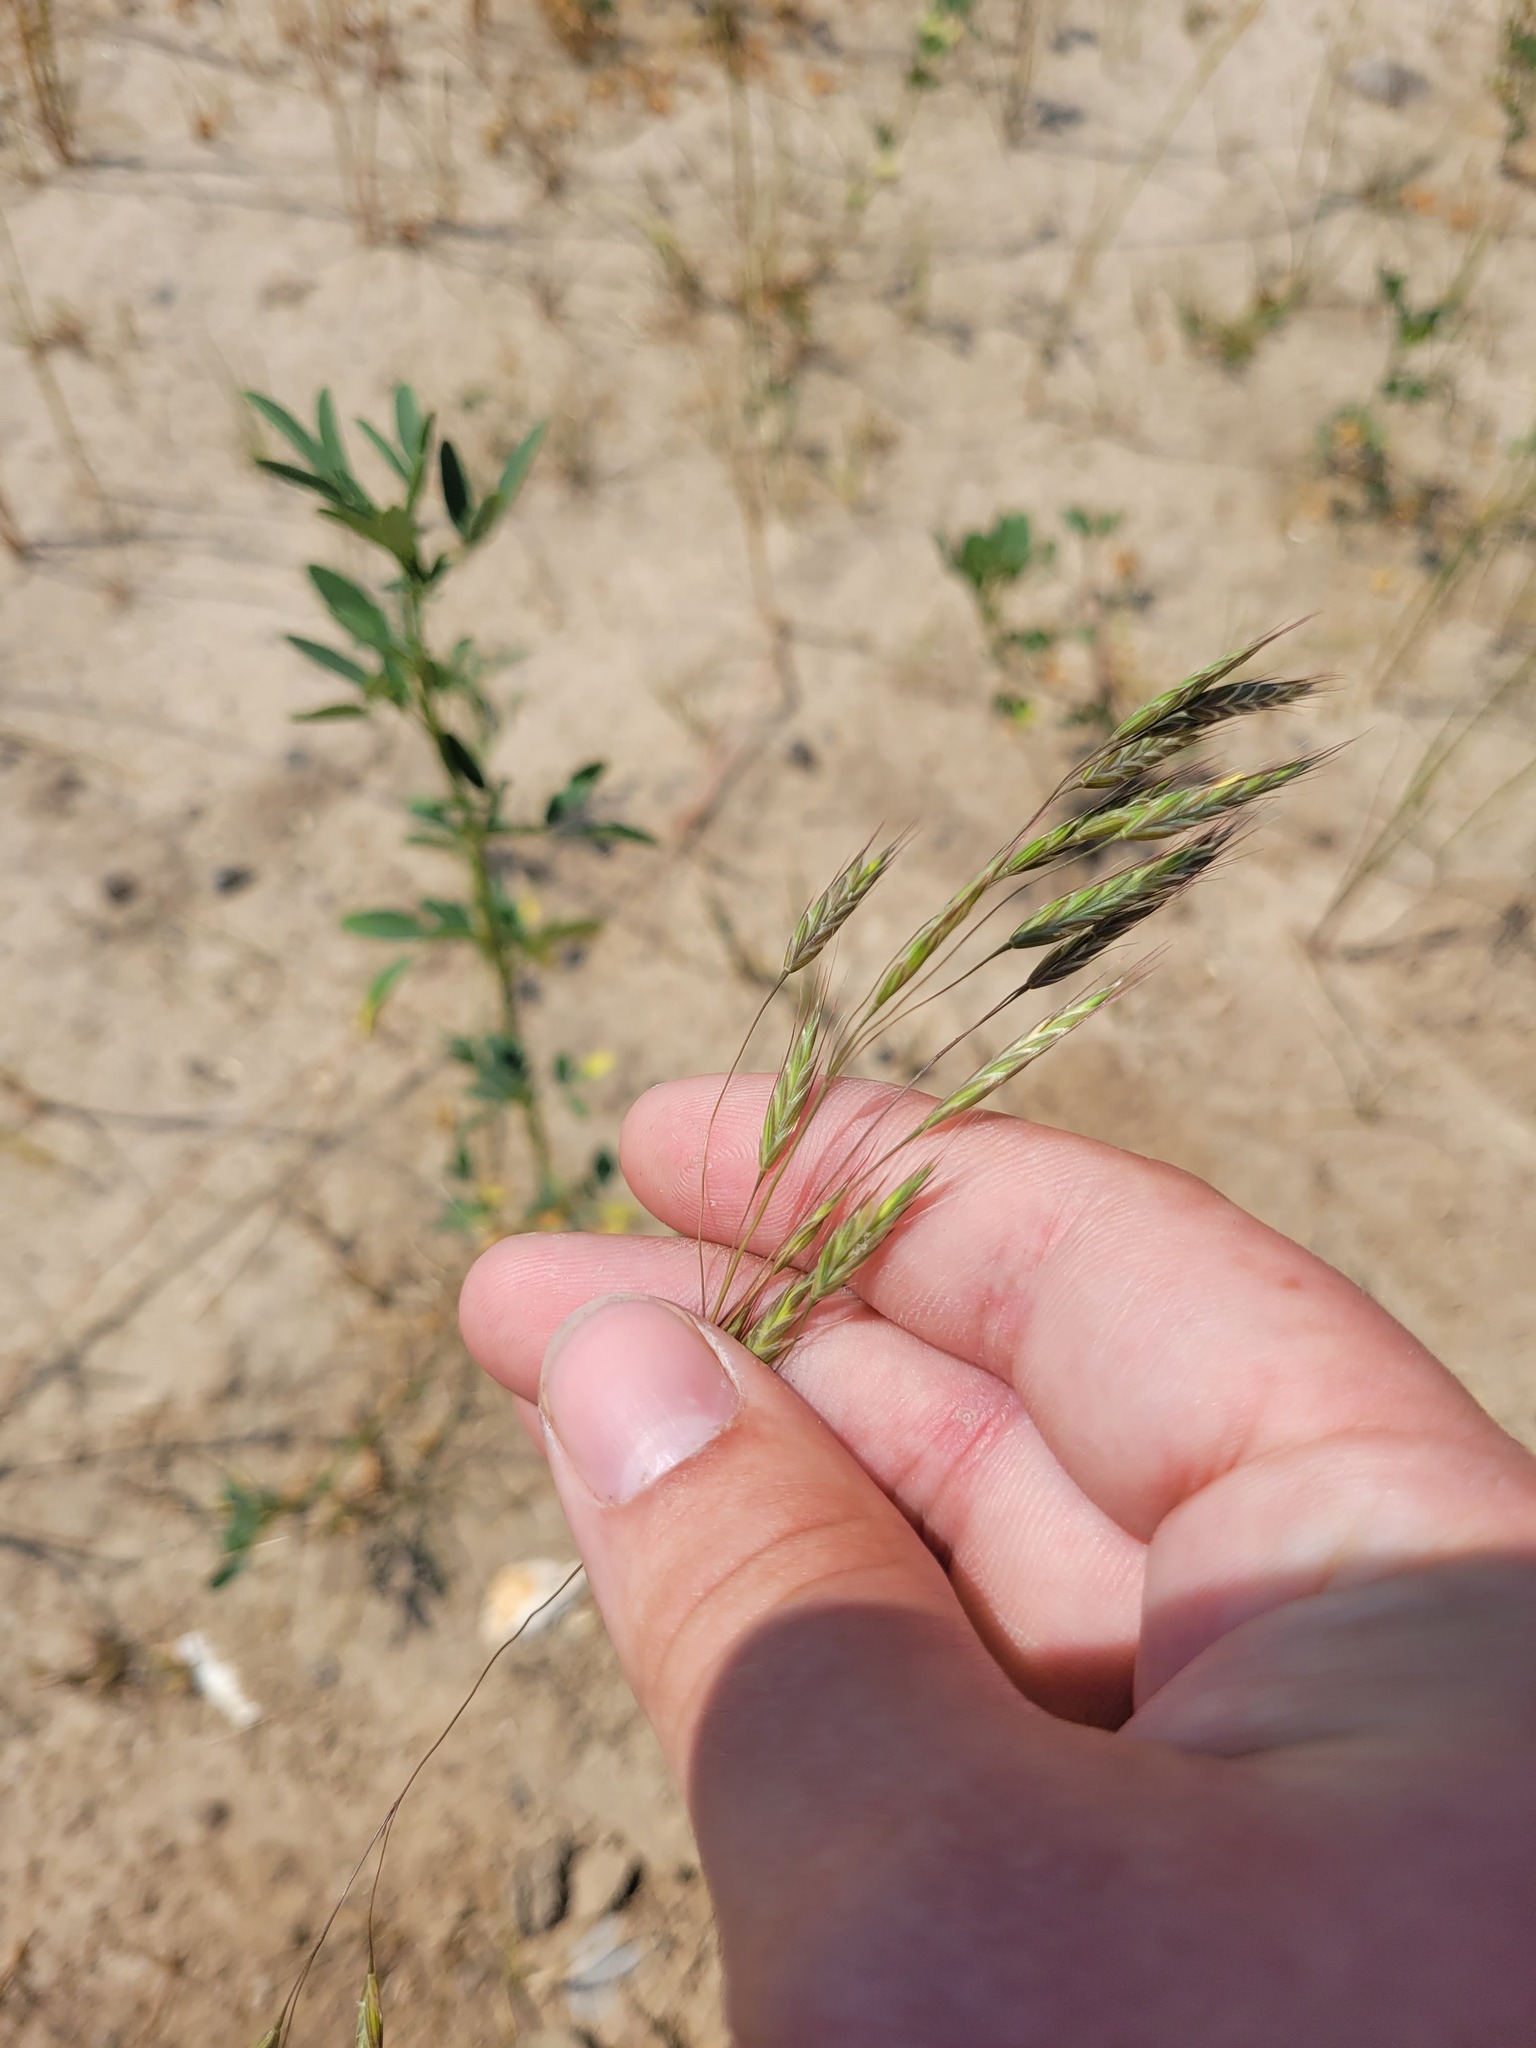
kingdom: Plantae
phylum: Tracheophyta
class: Liliopsida
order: Poales
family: Poaceae
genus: Bromus
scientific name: Bromus arvensis
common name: Field brome
